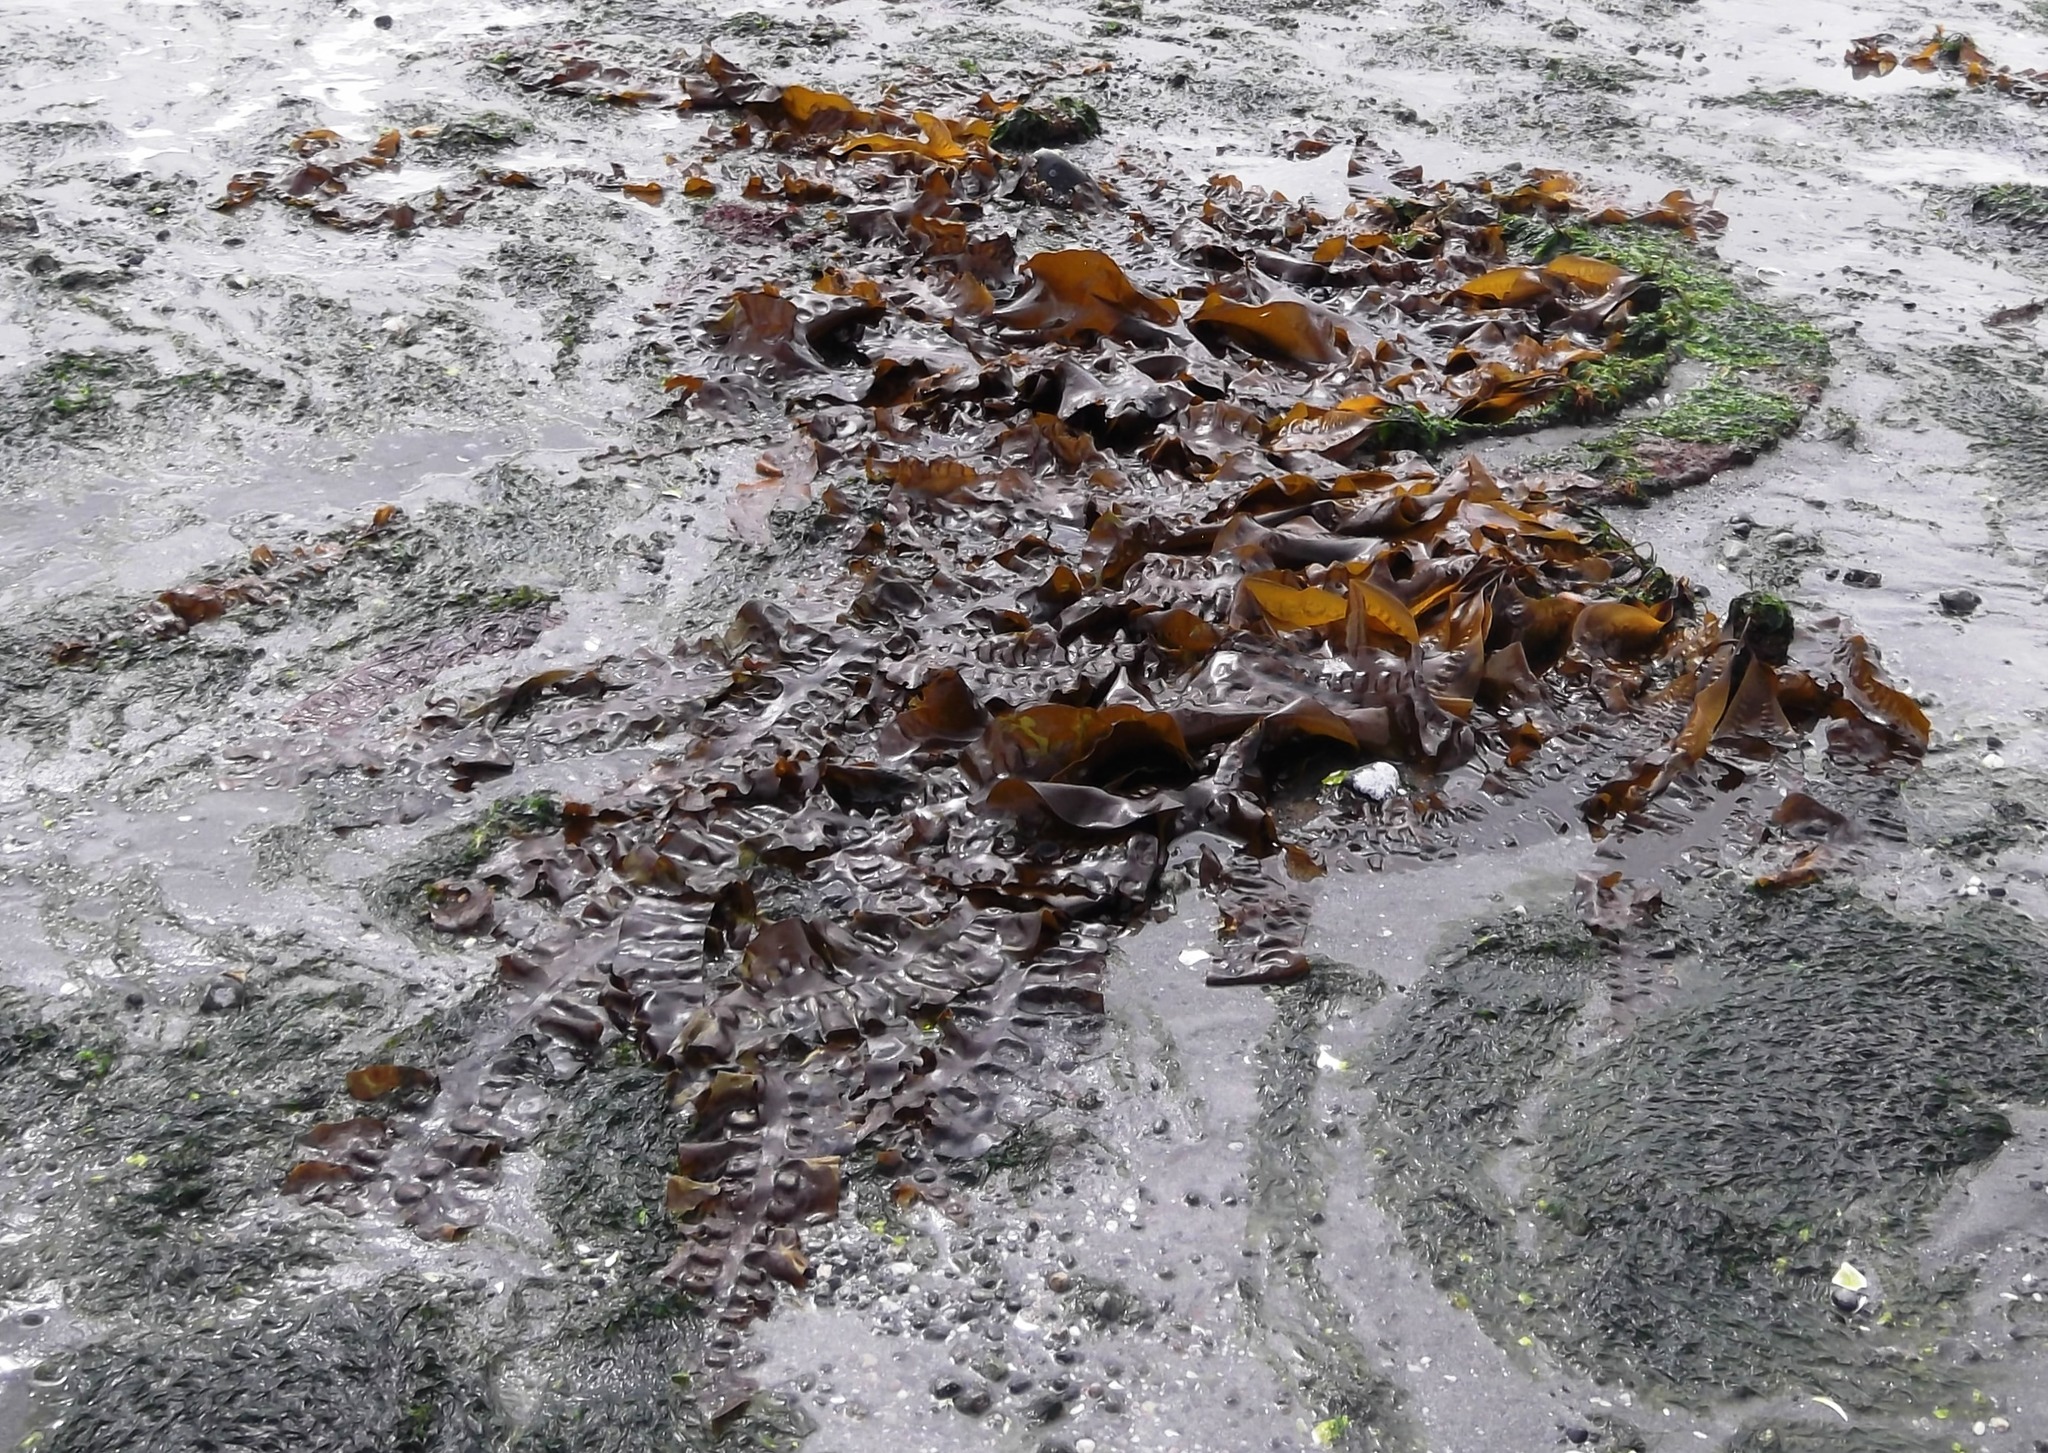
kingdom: Chromista
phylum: Ochrophyta
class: Phaeophyceae
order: Laminariales
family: Laminariaceae
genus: Saccharina
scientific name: Saccharina latissima
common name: Poor man's weather glass
